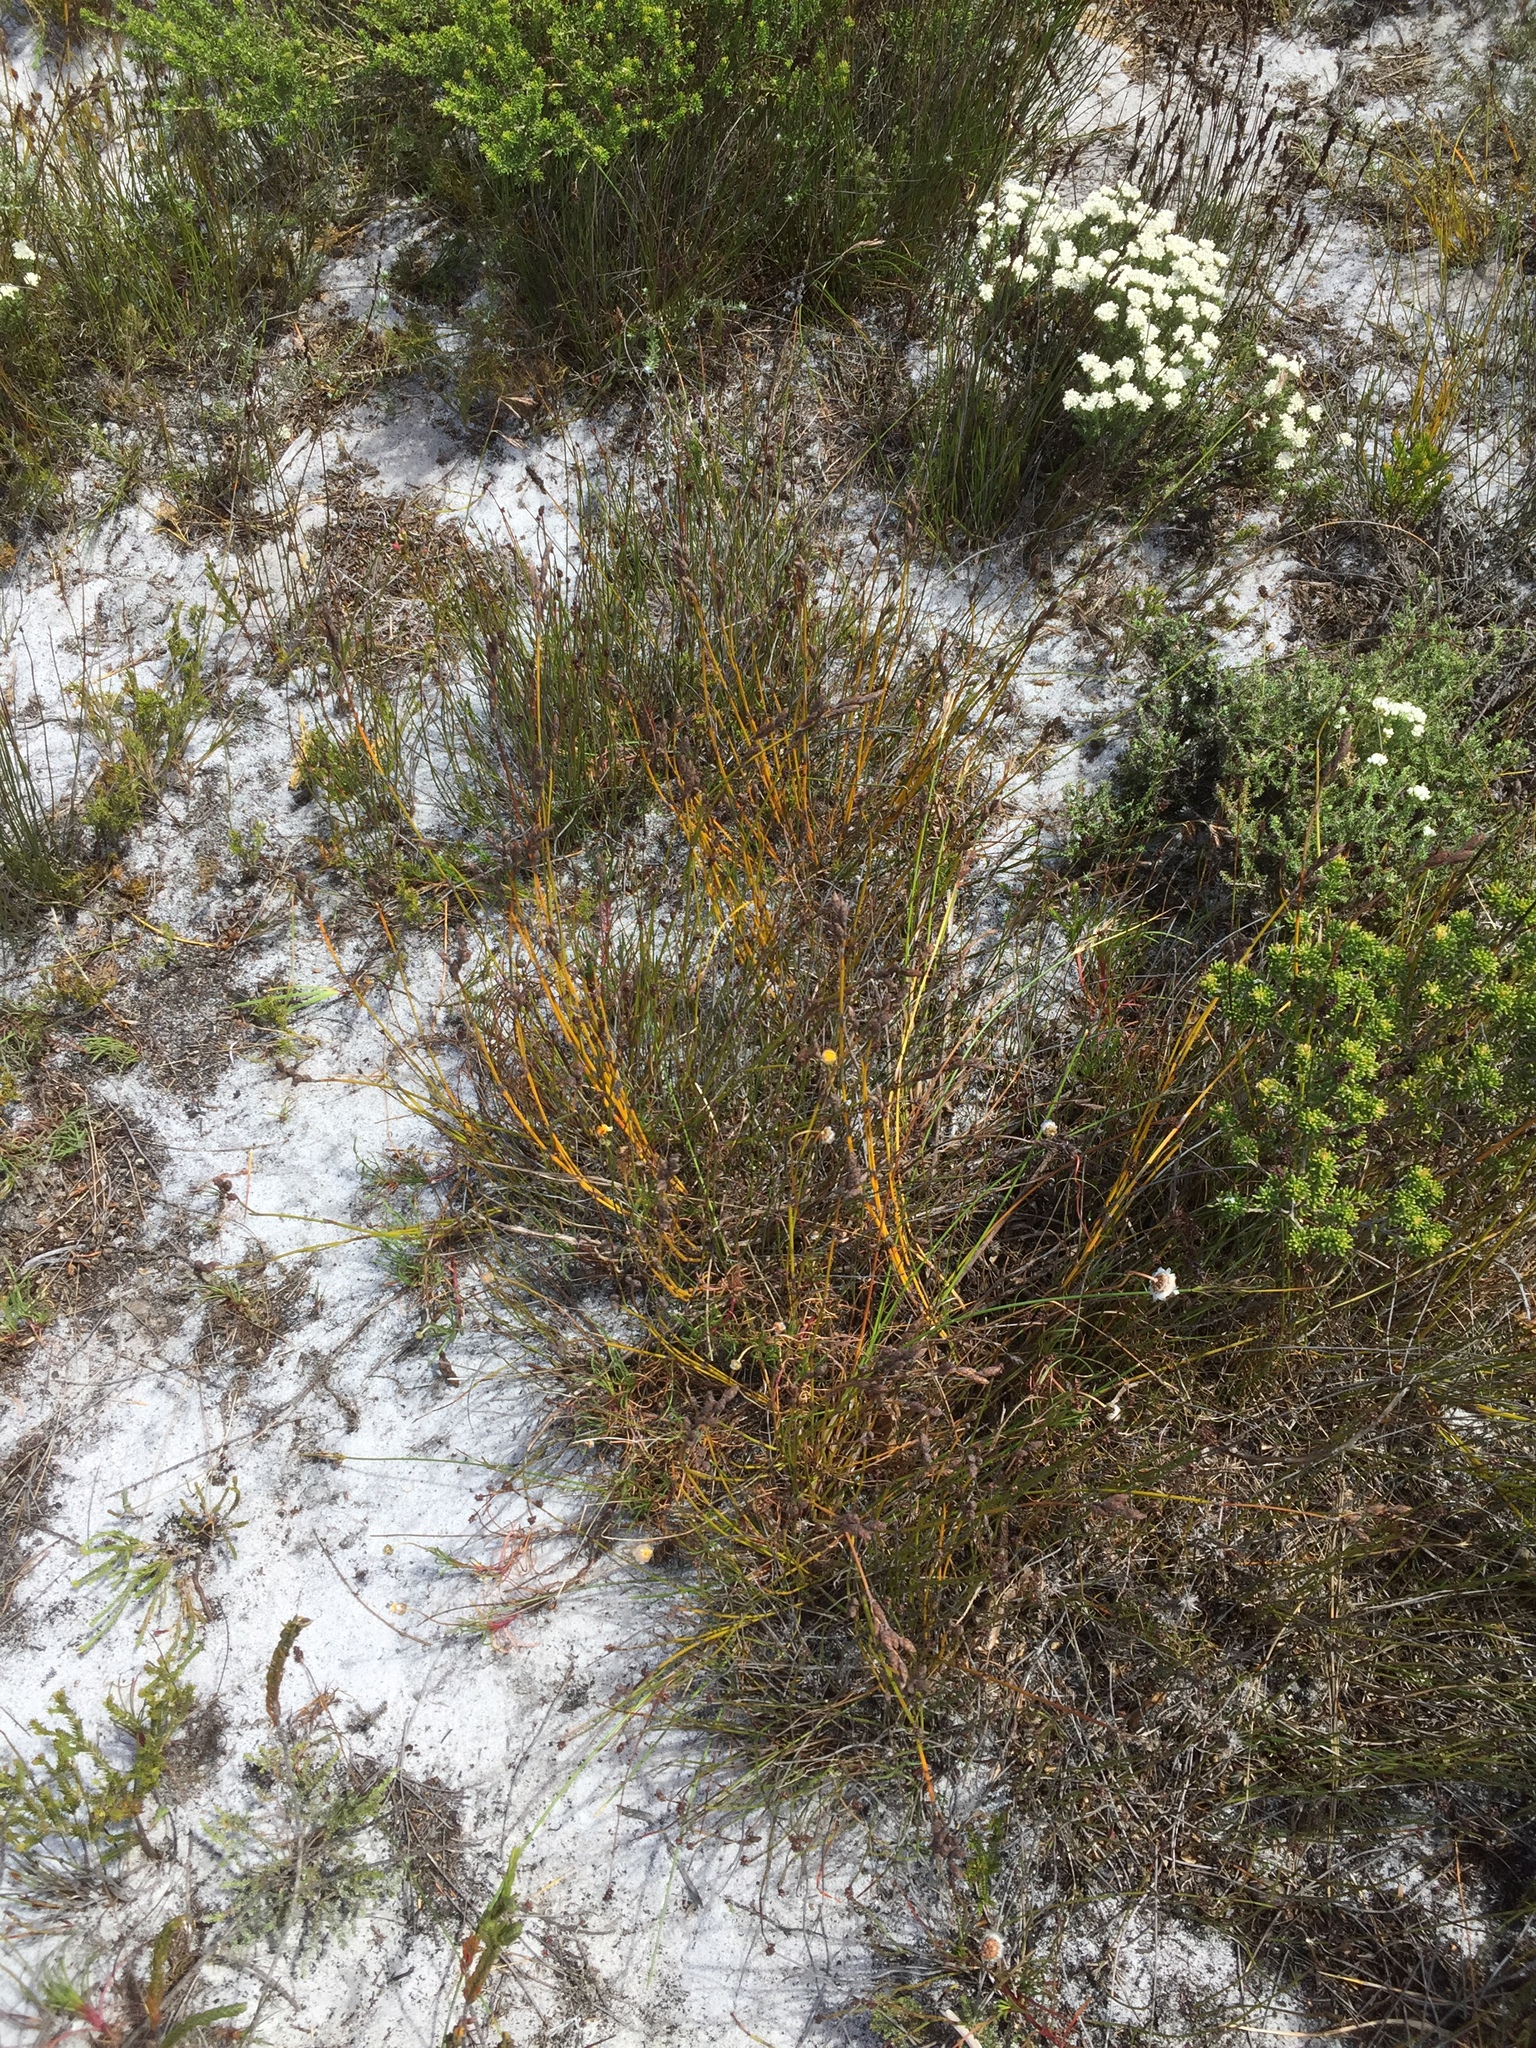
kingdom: Plantae
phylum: Tracheophyta
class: Liliopsida
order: Poales
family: Restionaceae
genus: Restio
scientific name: Restio bifurcus
